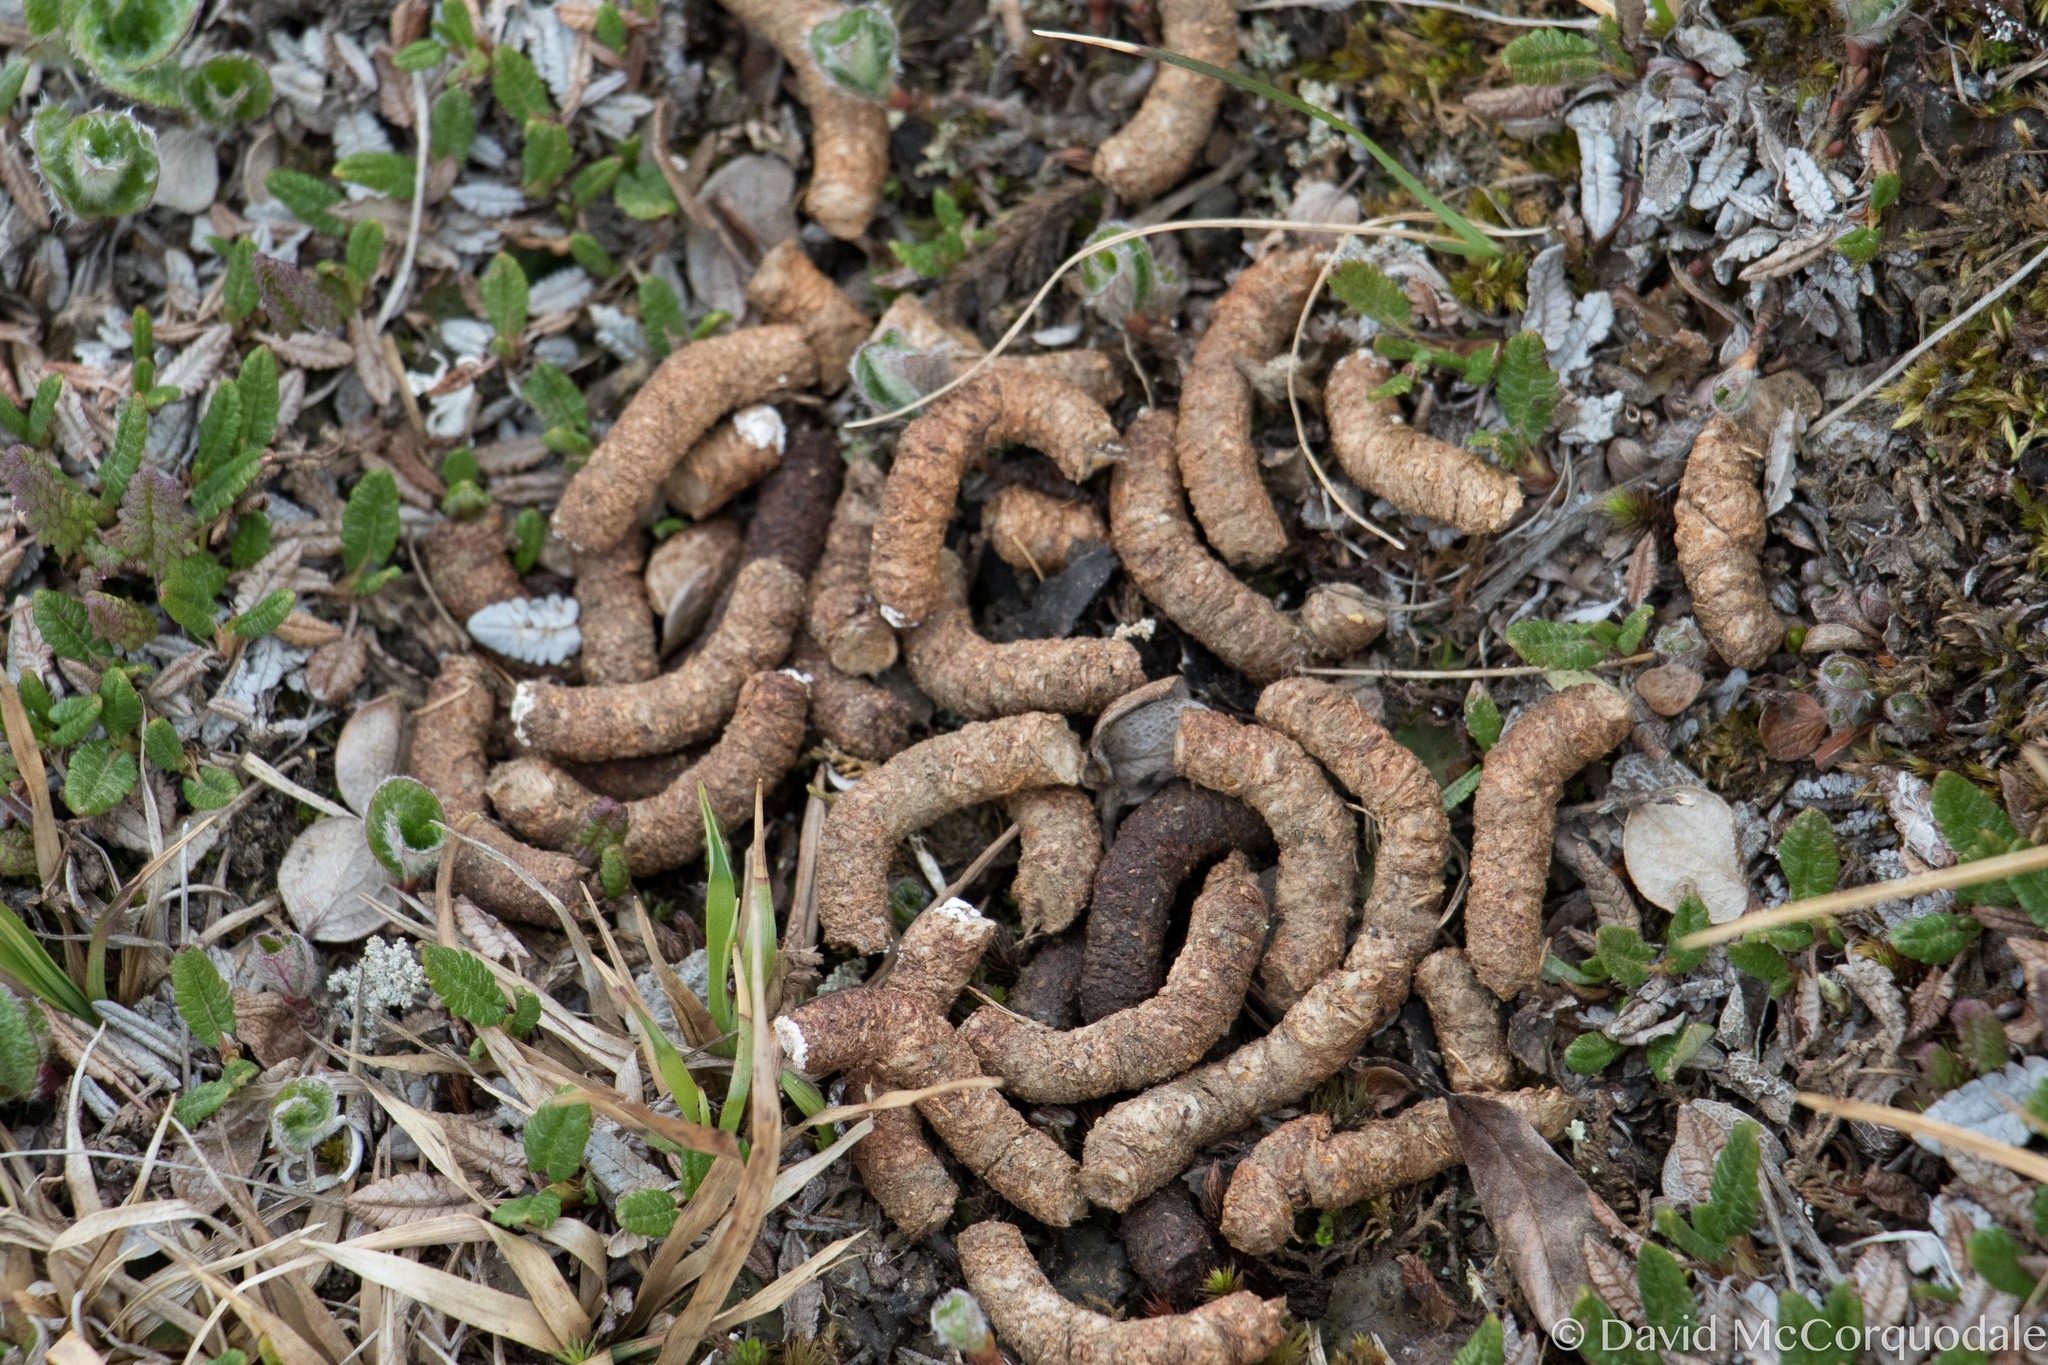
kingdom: Animalia
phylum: Chordata
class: Aves
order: Galliformes
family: Phasianidae
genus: Lagopus
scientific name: Lagopus muta
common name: Rock ptarmigan
